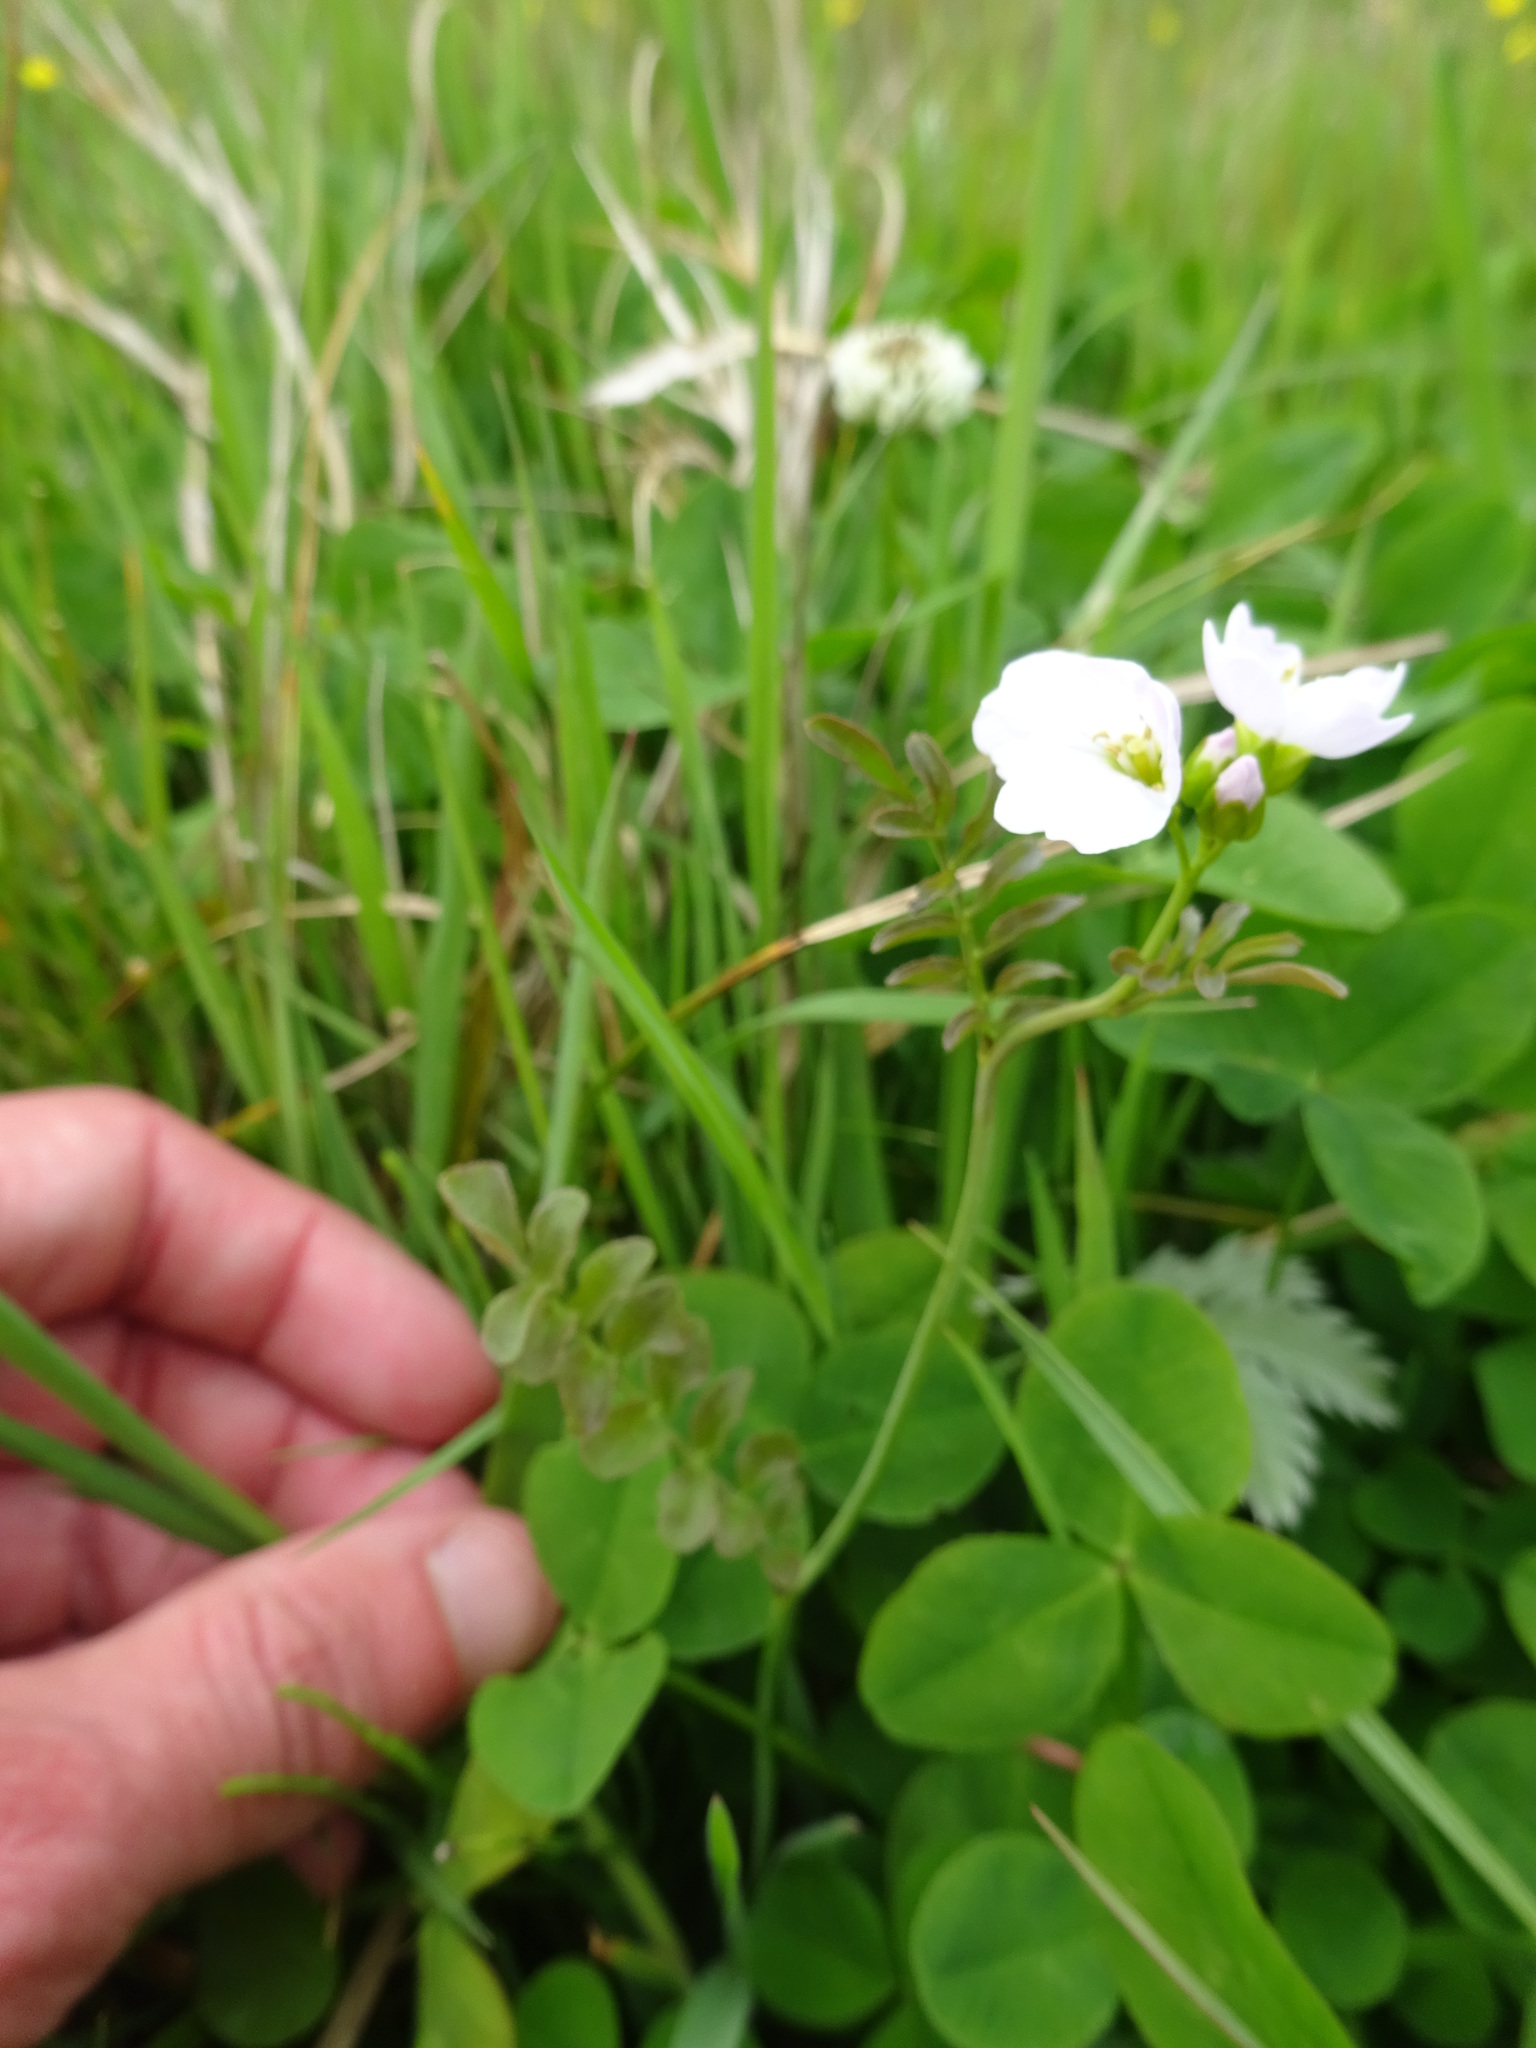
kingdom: Plantae
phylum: Tracheophyta
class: Magnoliopsida
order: Brassicales
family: Brassicaceae
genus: Cardamine
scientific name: Cardamine pratensis
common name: Cuckoo flower
